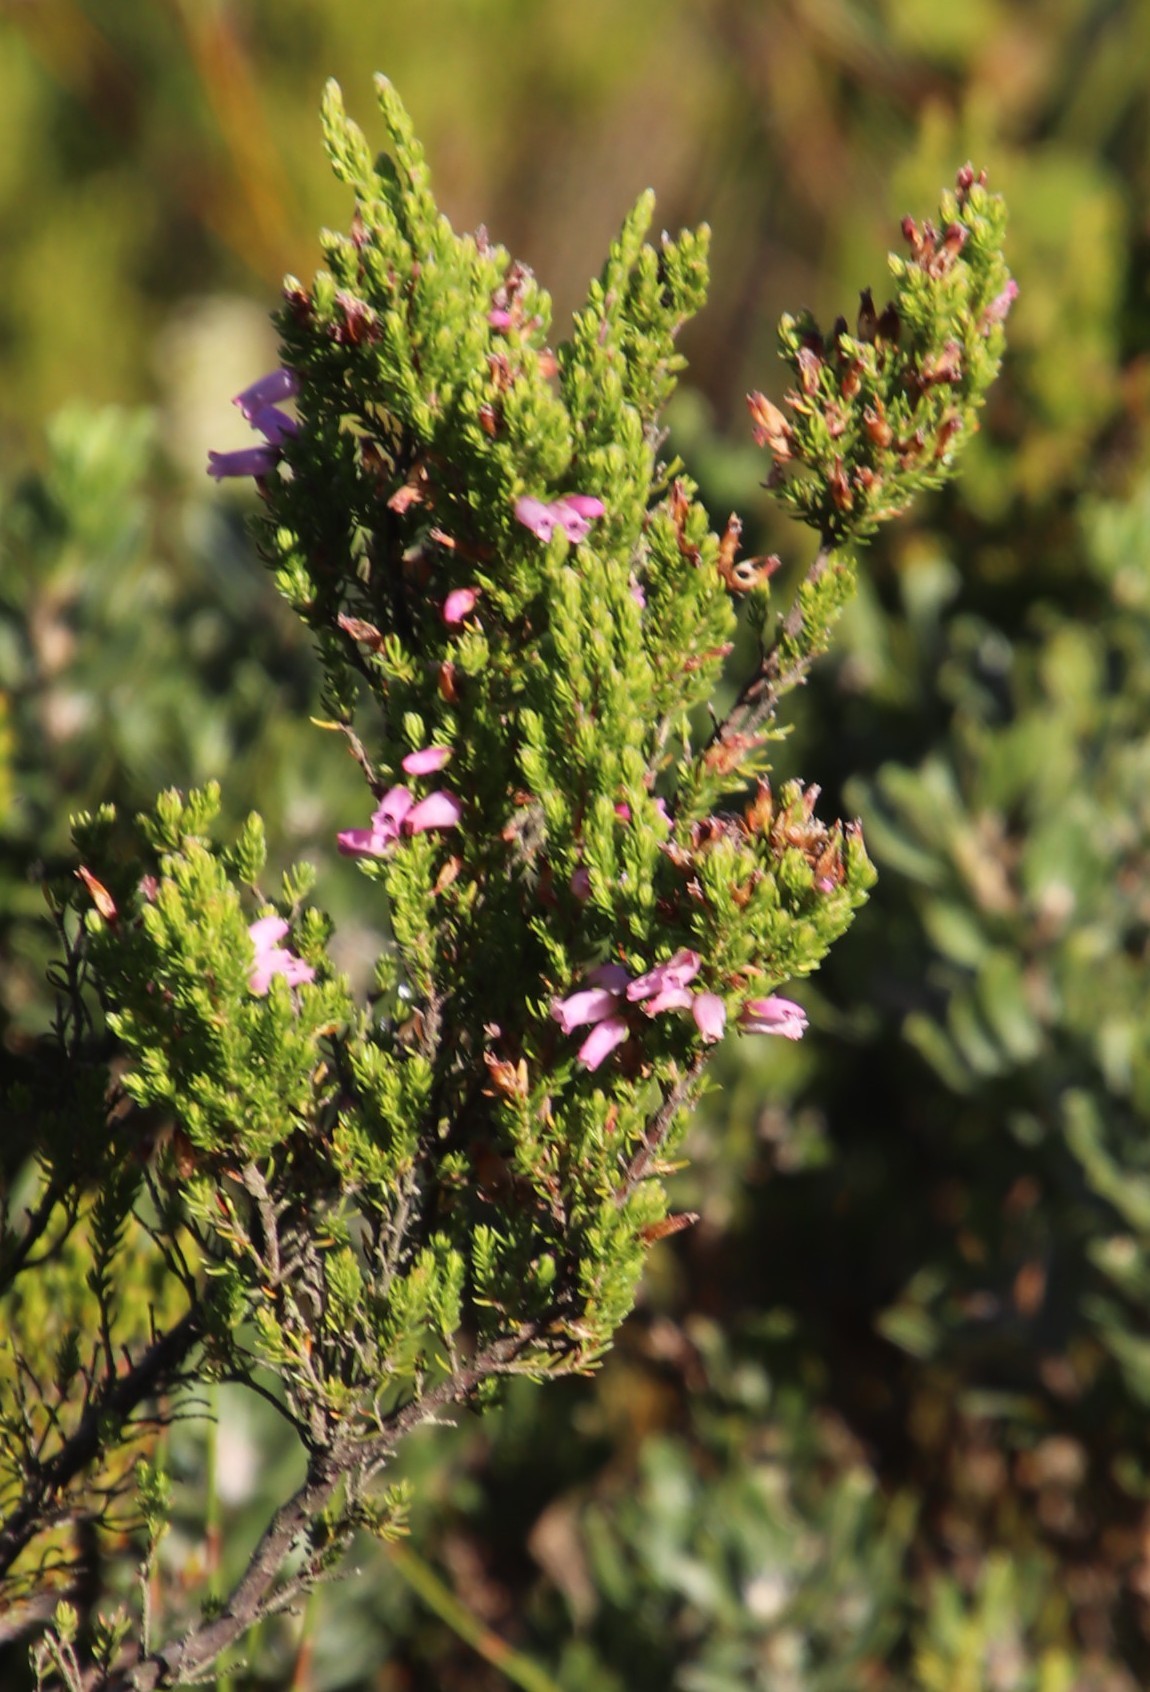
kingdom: Plantae
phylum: Tracheophyta
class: Magnoliopsida
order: Ericales
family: Ericaceae
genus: Erica
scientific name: Erica sitiens
